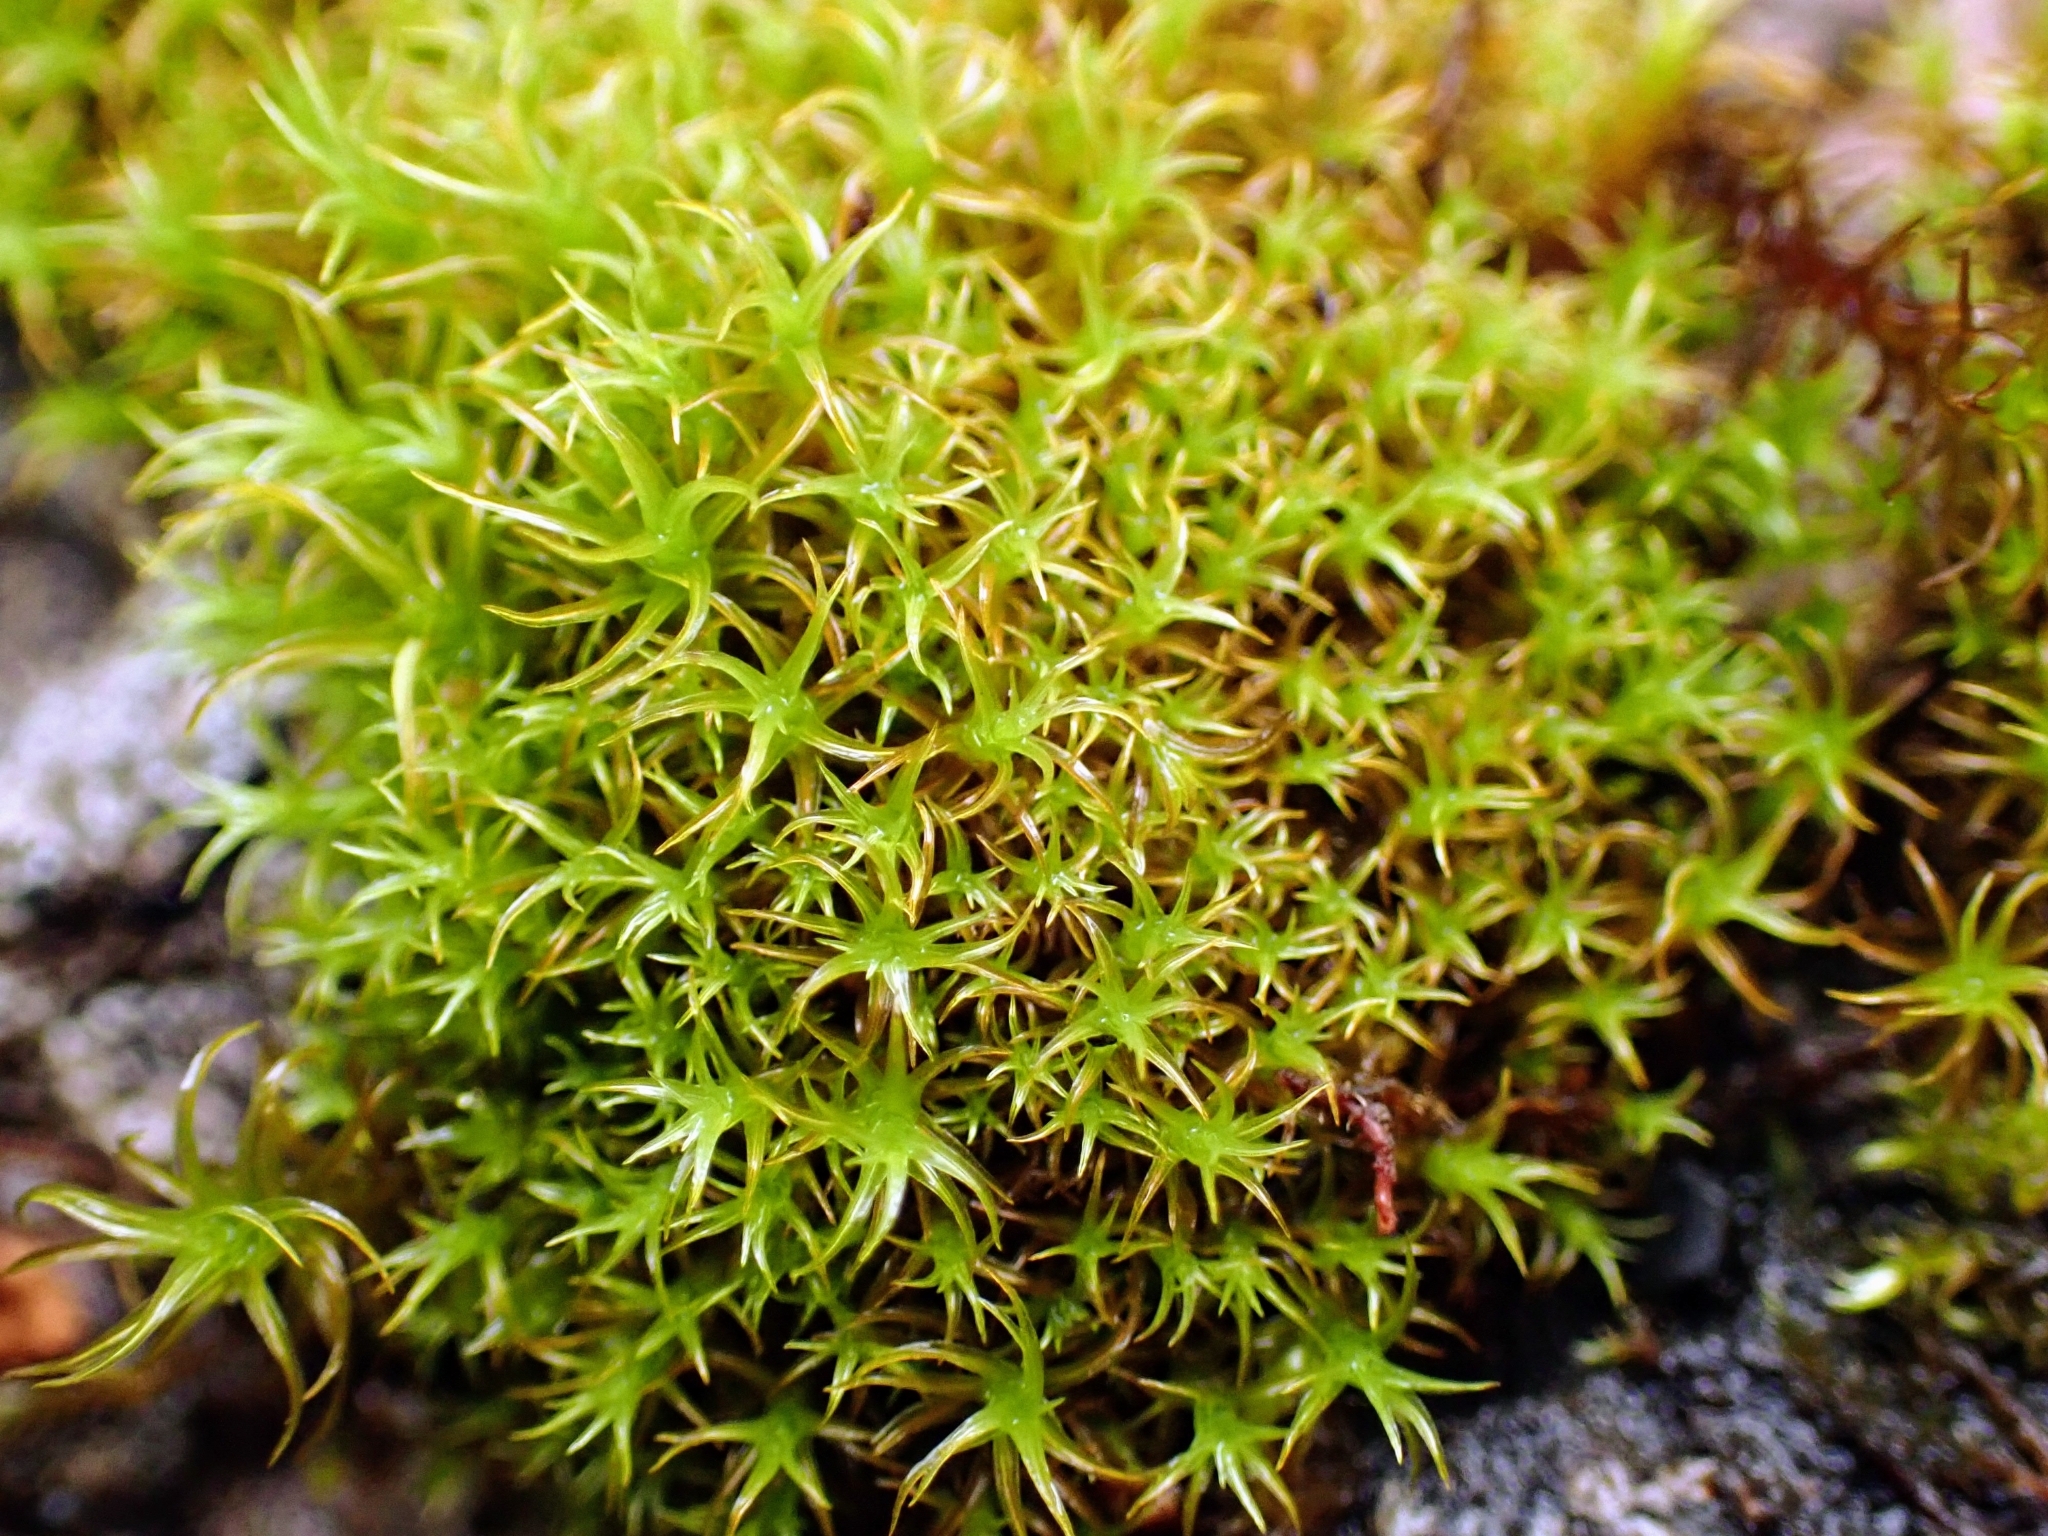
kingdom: Plantae
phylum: Bryophyta
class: Bryopsida
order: Pottiales
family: Pottiaceae
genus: Vinealobryum
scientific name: Vinealobryum insulanum
